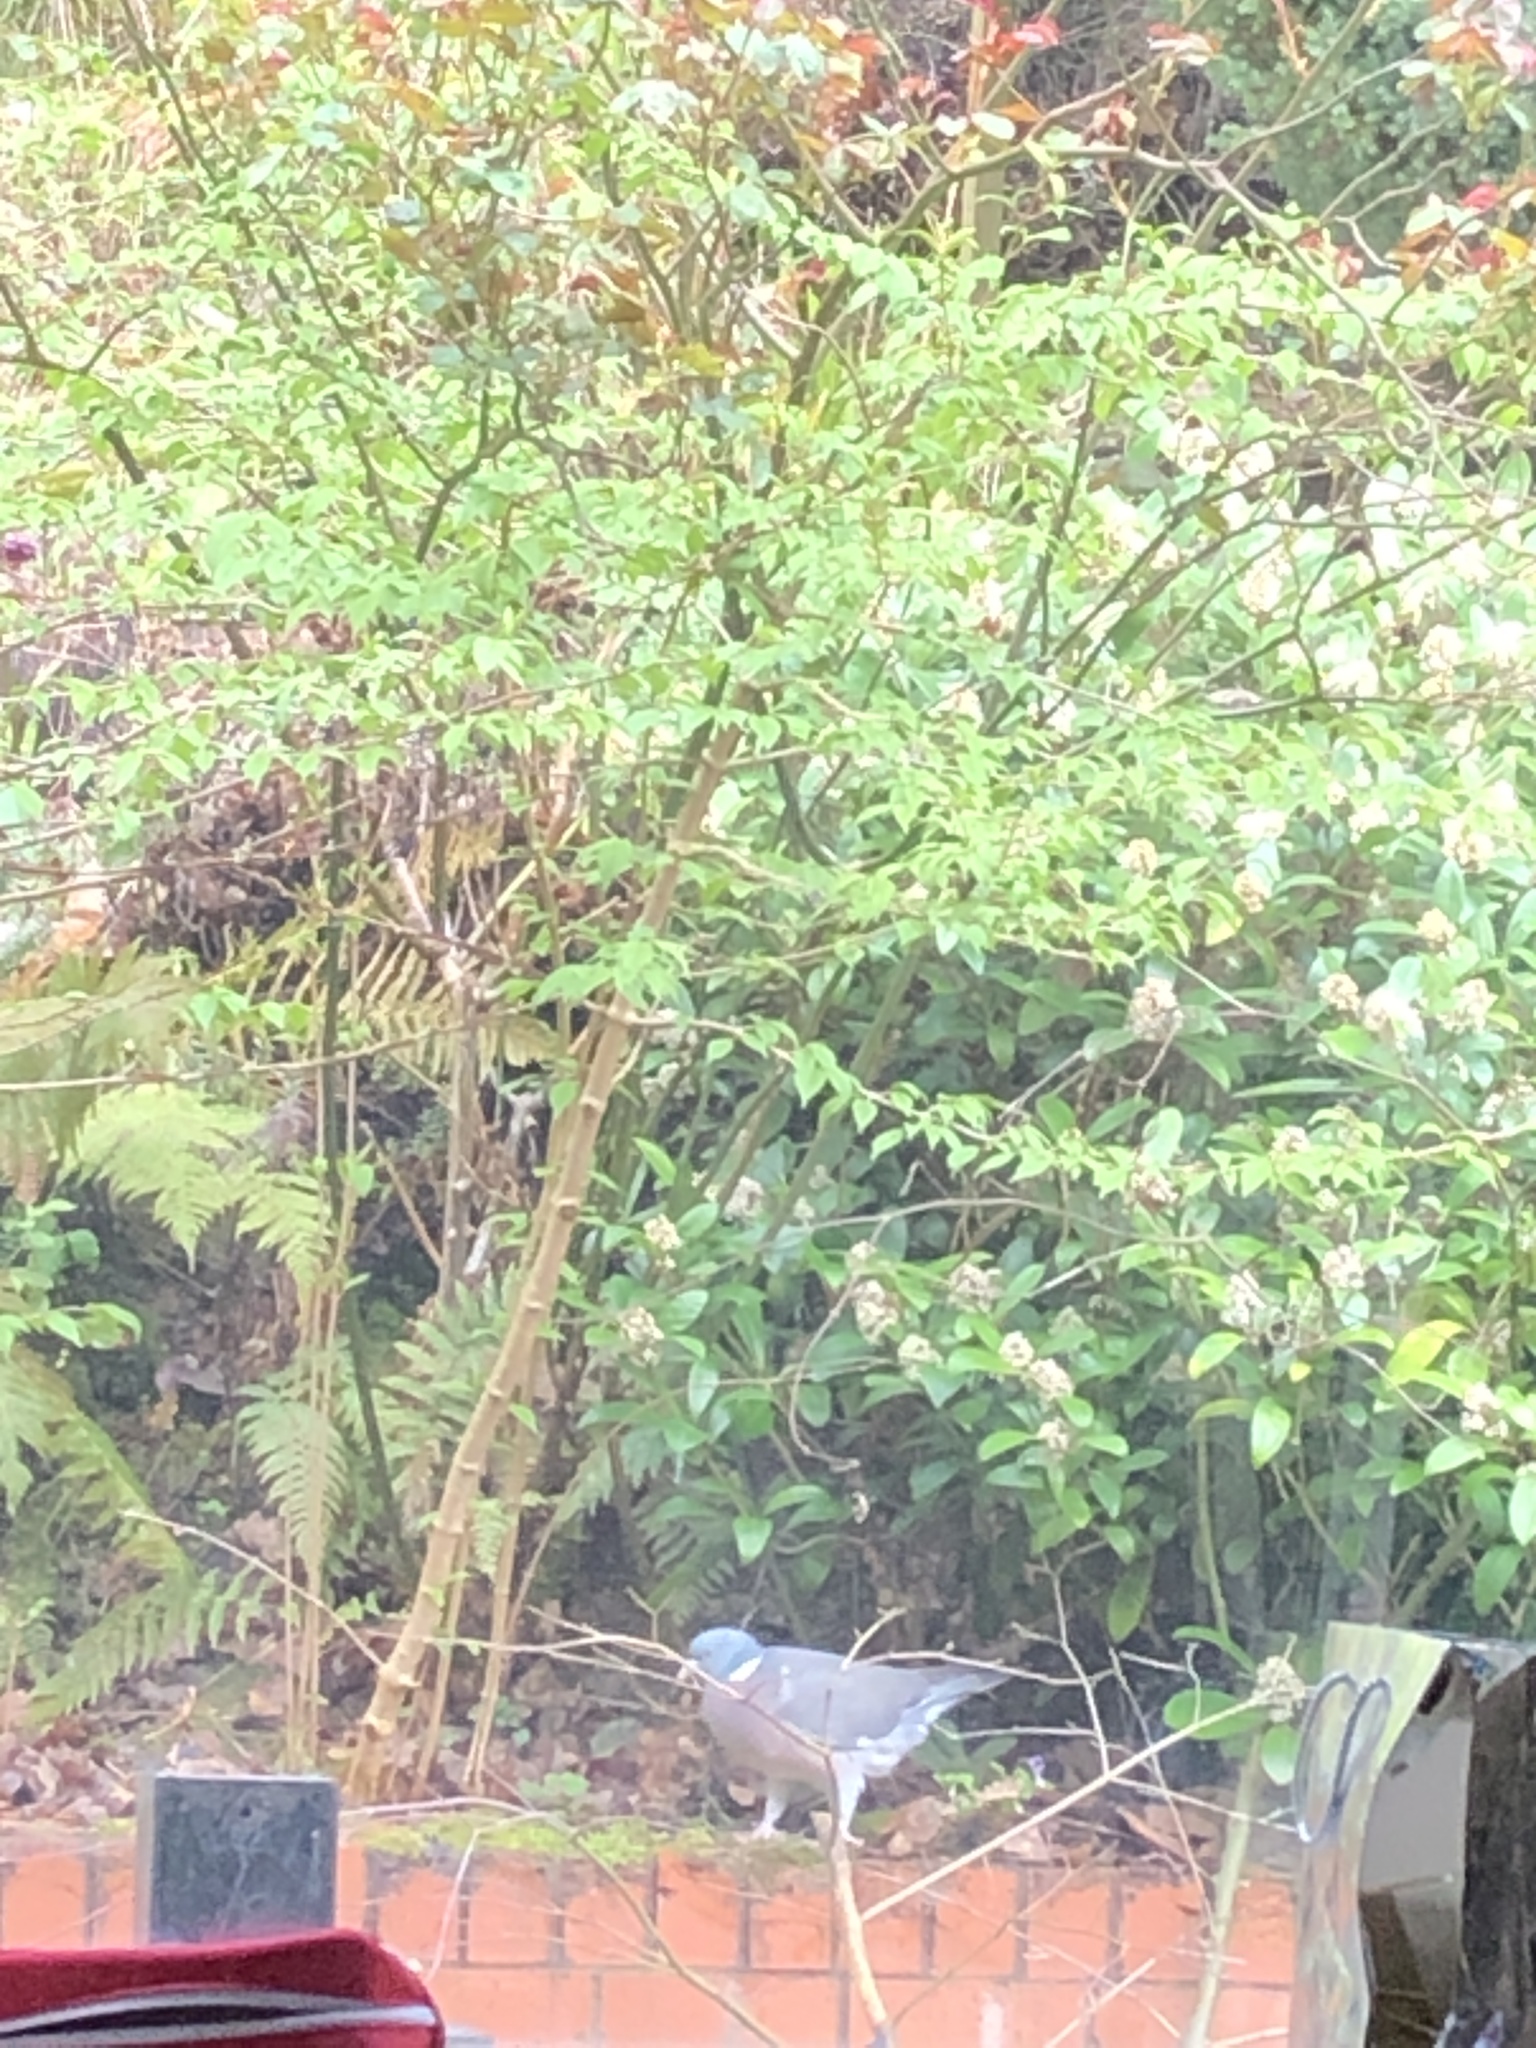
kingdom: Animalia
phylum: Chordata
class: Aves
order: Columbiformes
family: Columbidae
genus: Columba
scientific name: Columba palumbus
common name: Common wood pigeon
